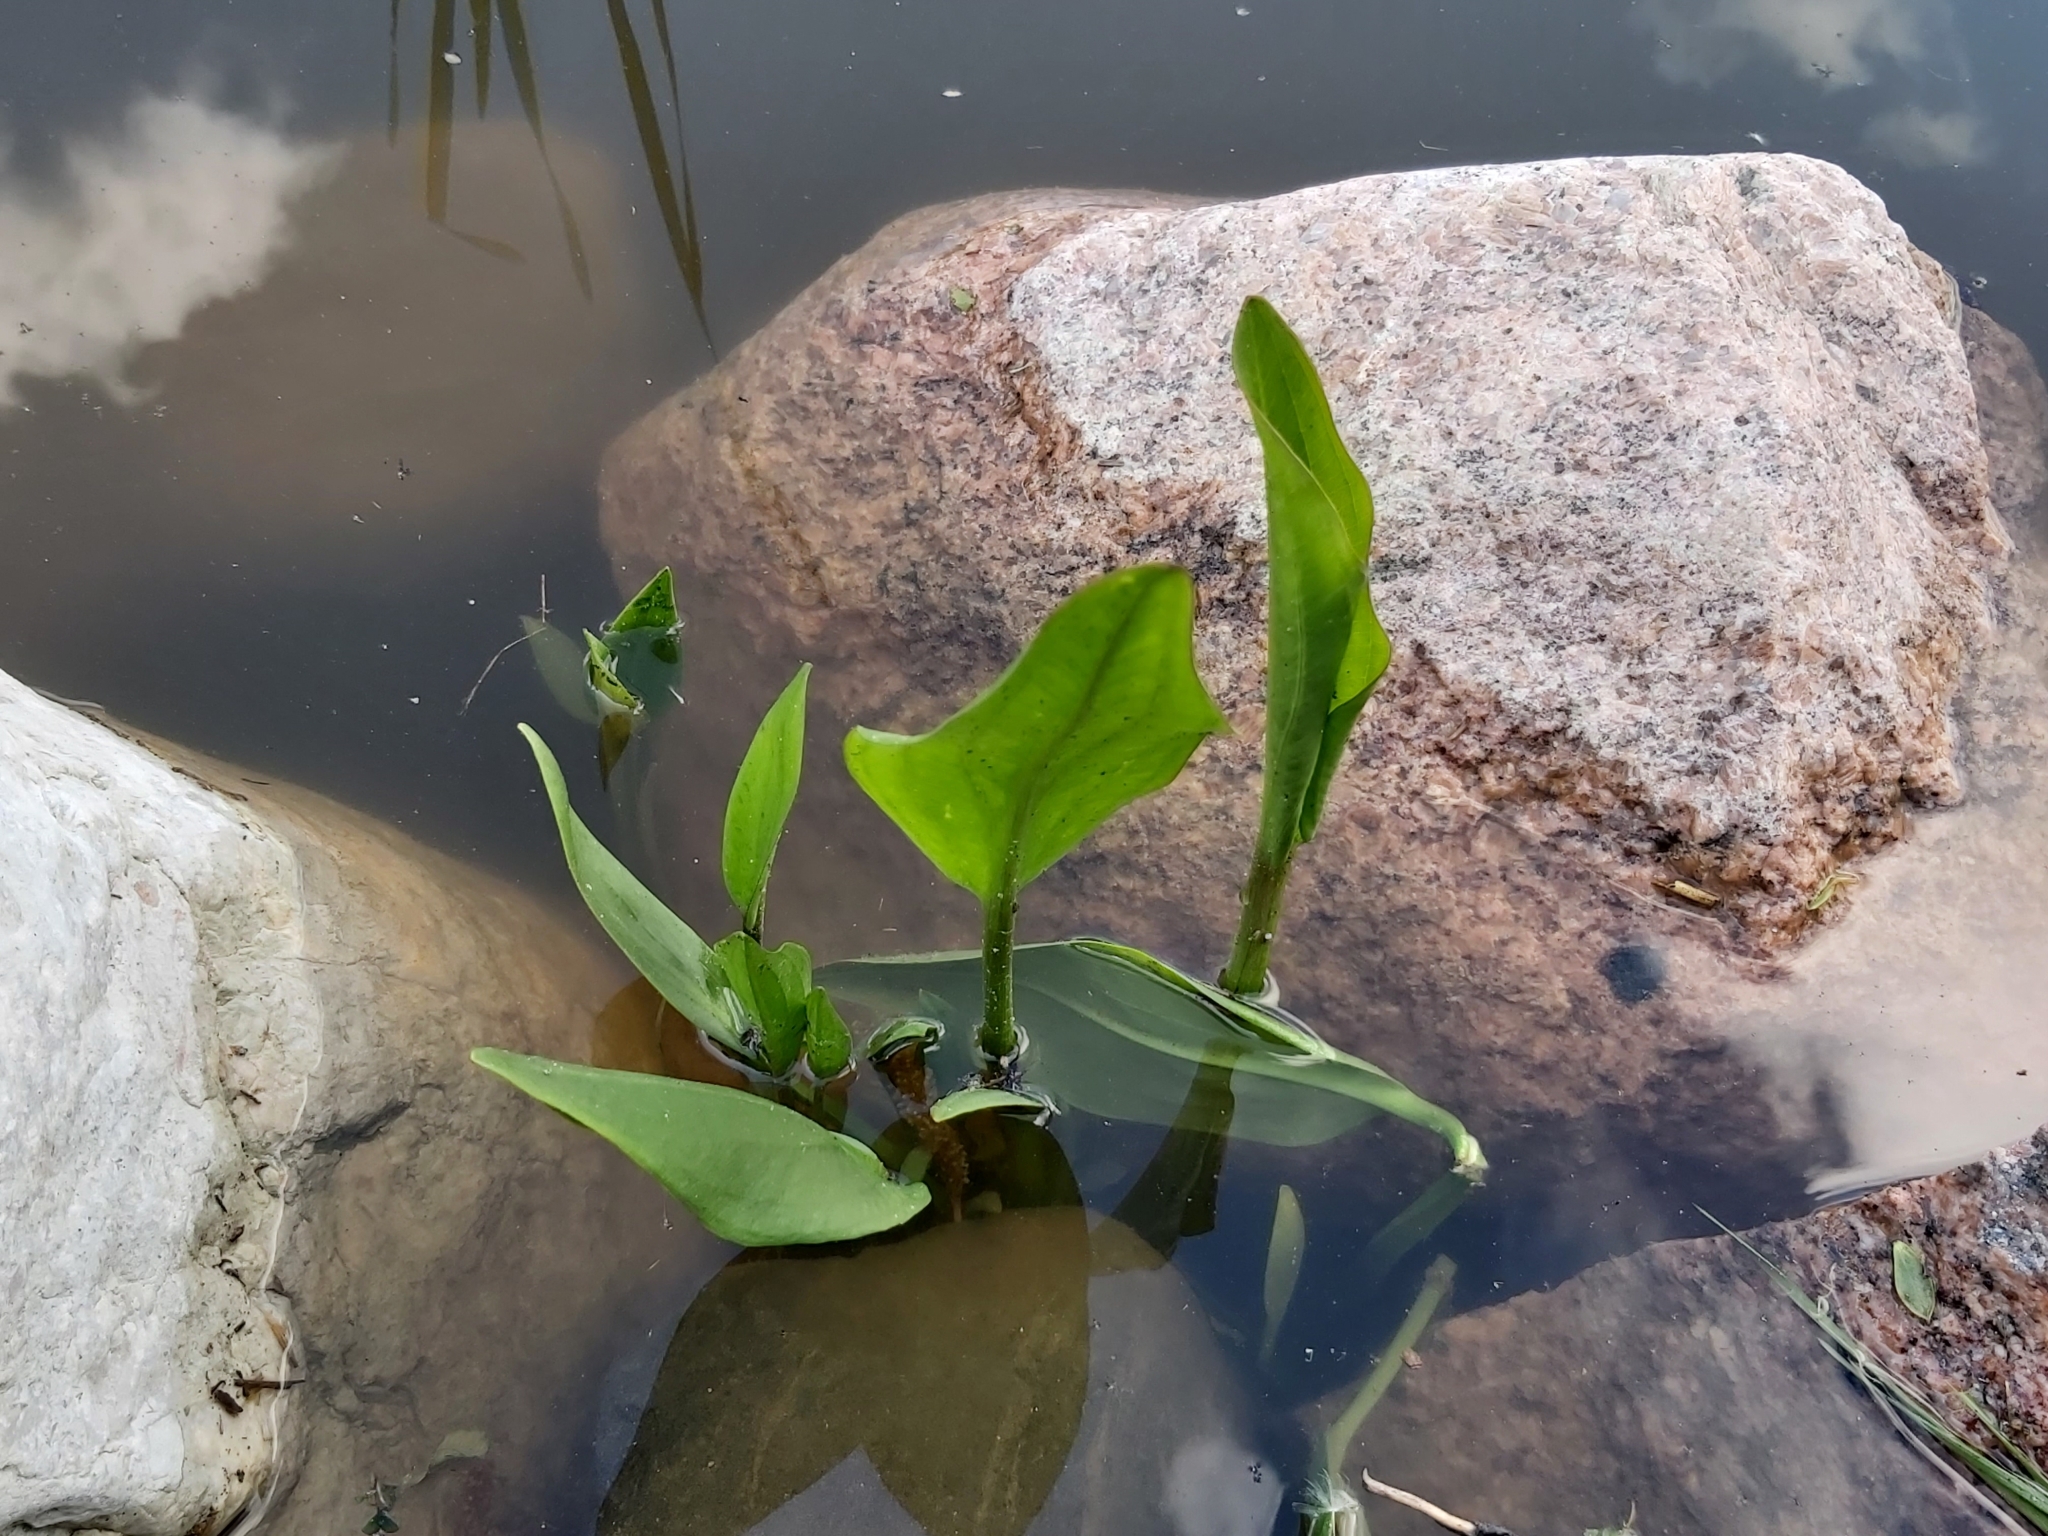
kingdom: Plantae
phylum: Tracheophyta
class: Liliopsida
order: Alismatales
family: Alismataceae
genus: Alisma
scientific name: Alisma plantago-aquatica
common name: Water-plantain
